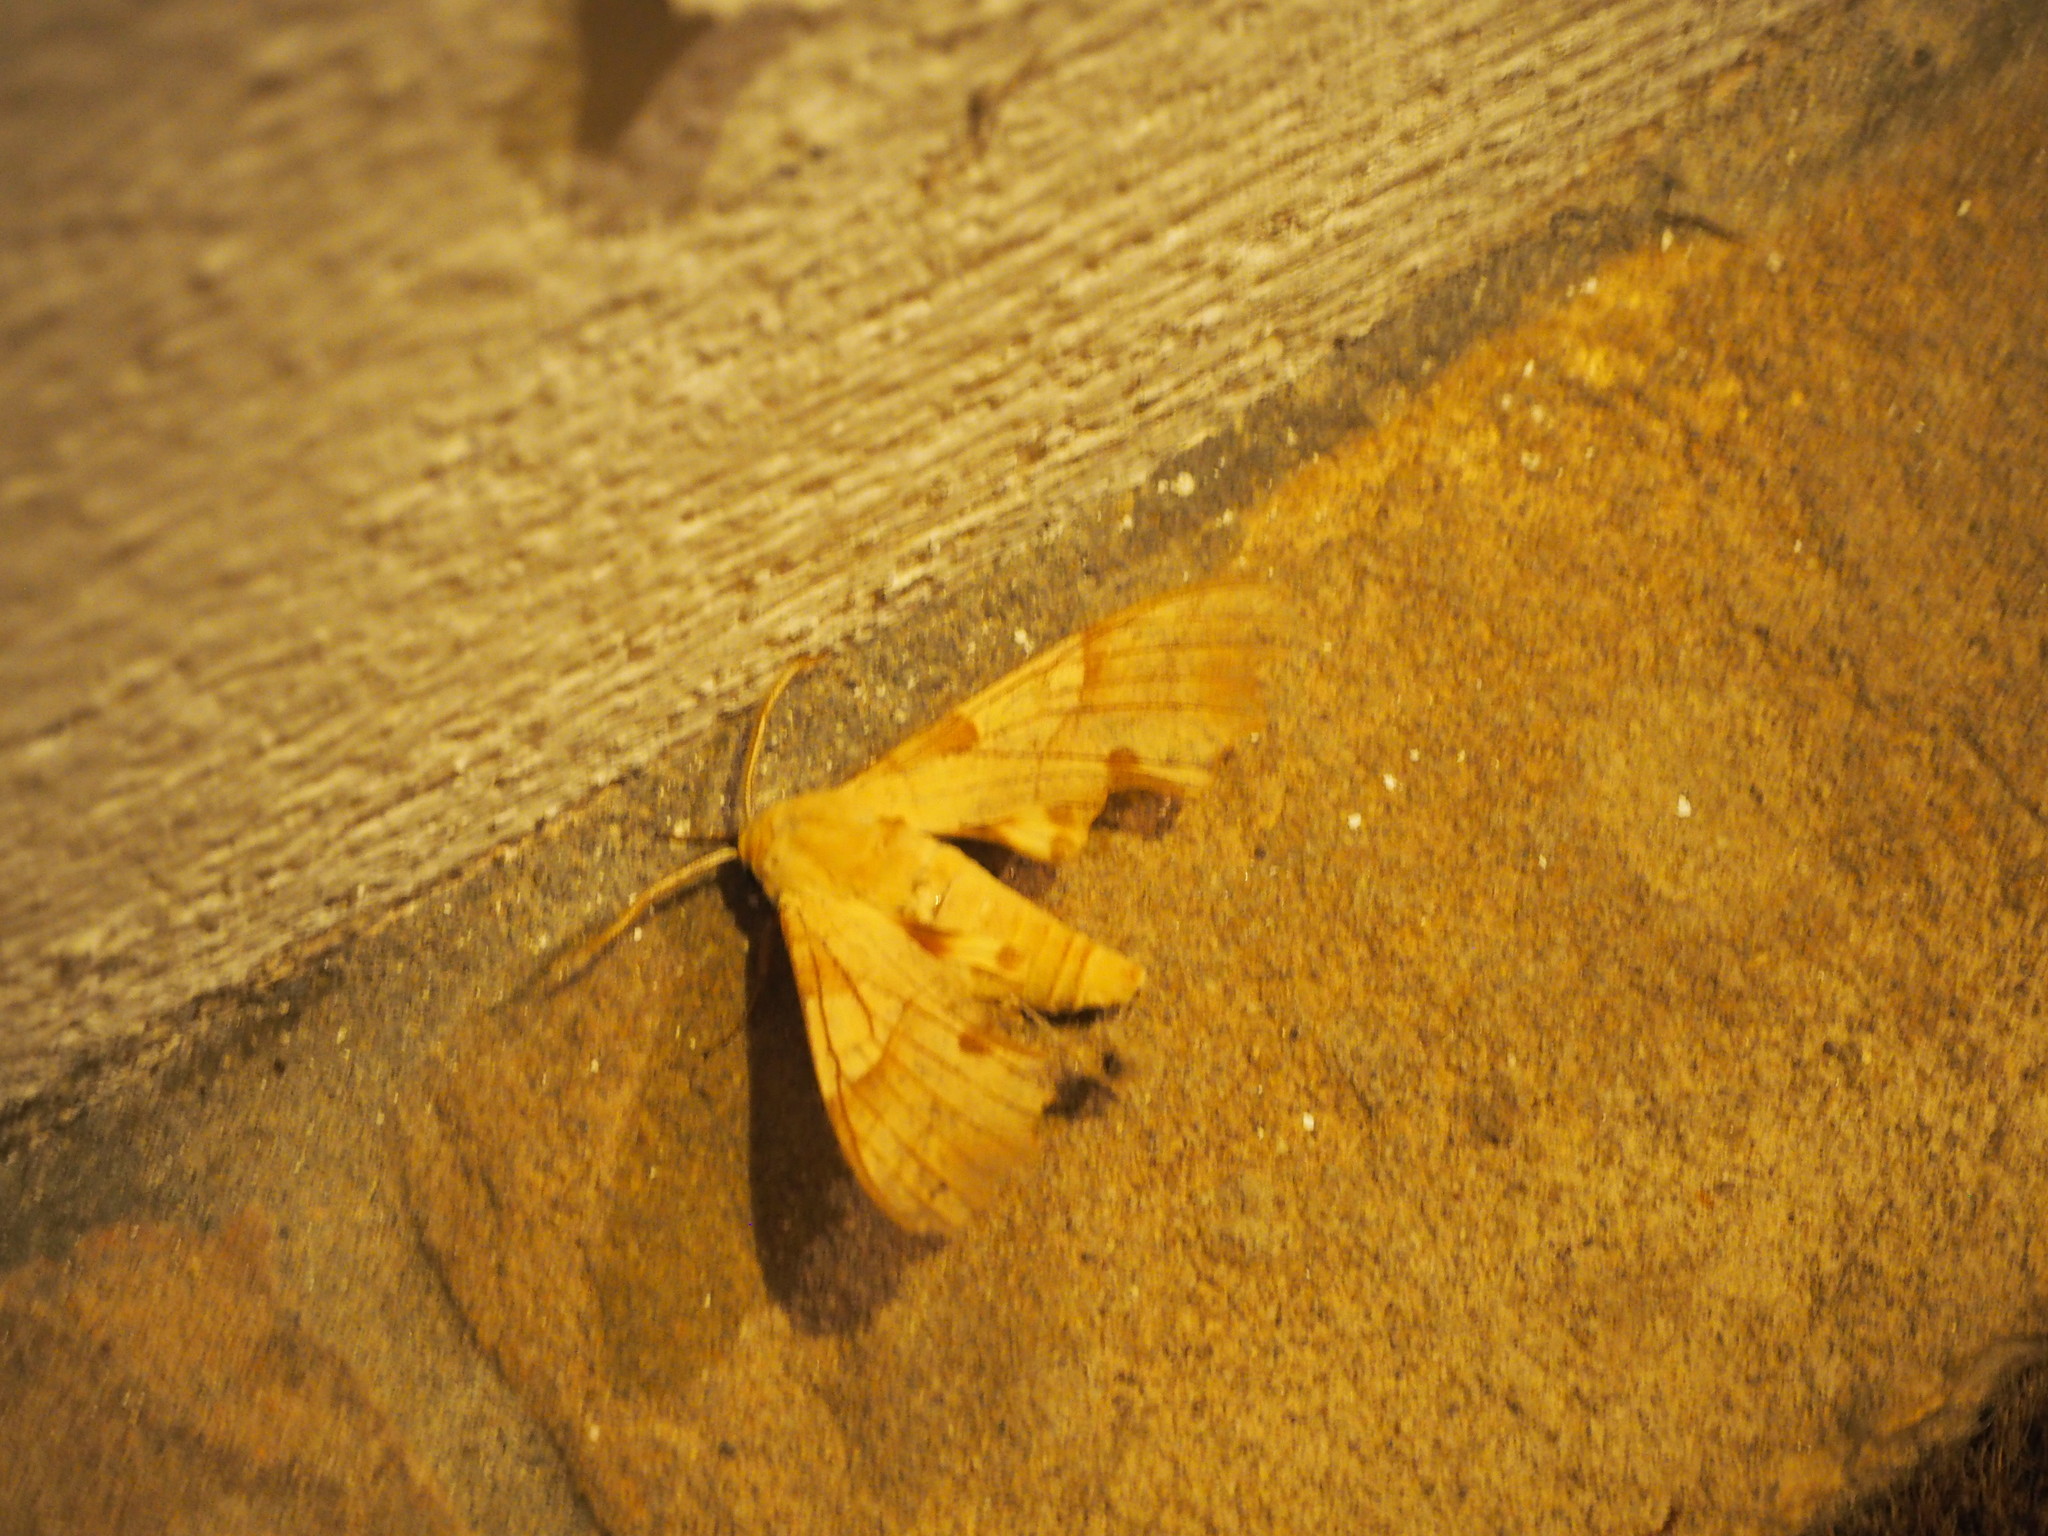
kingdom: Animalia
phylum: Arthropoda
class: Insecta
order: Lepidoptera
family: Sphingidae
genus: Marumba
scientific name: Marumba quercus
